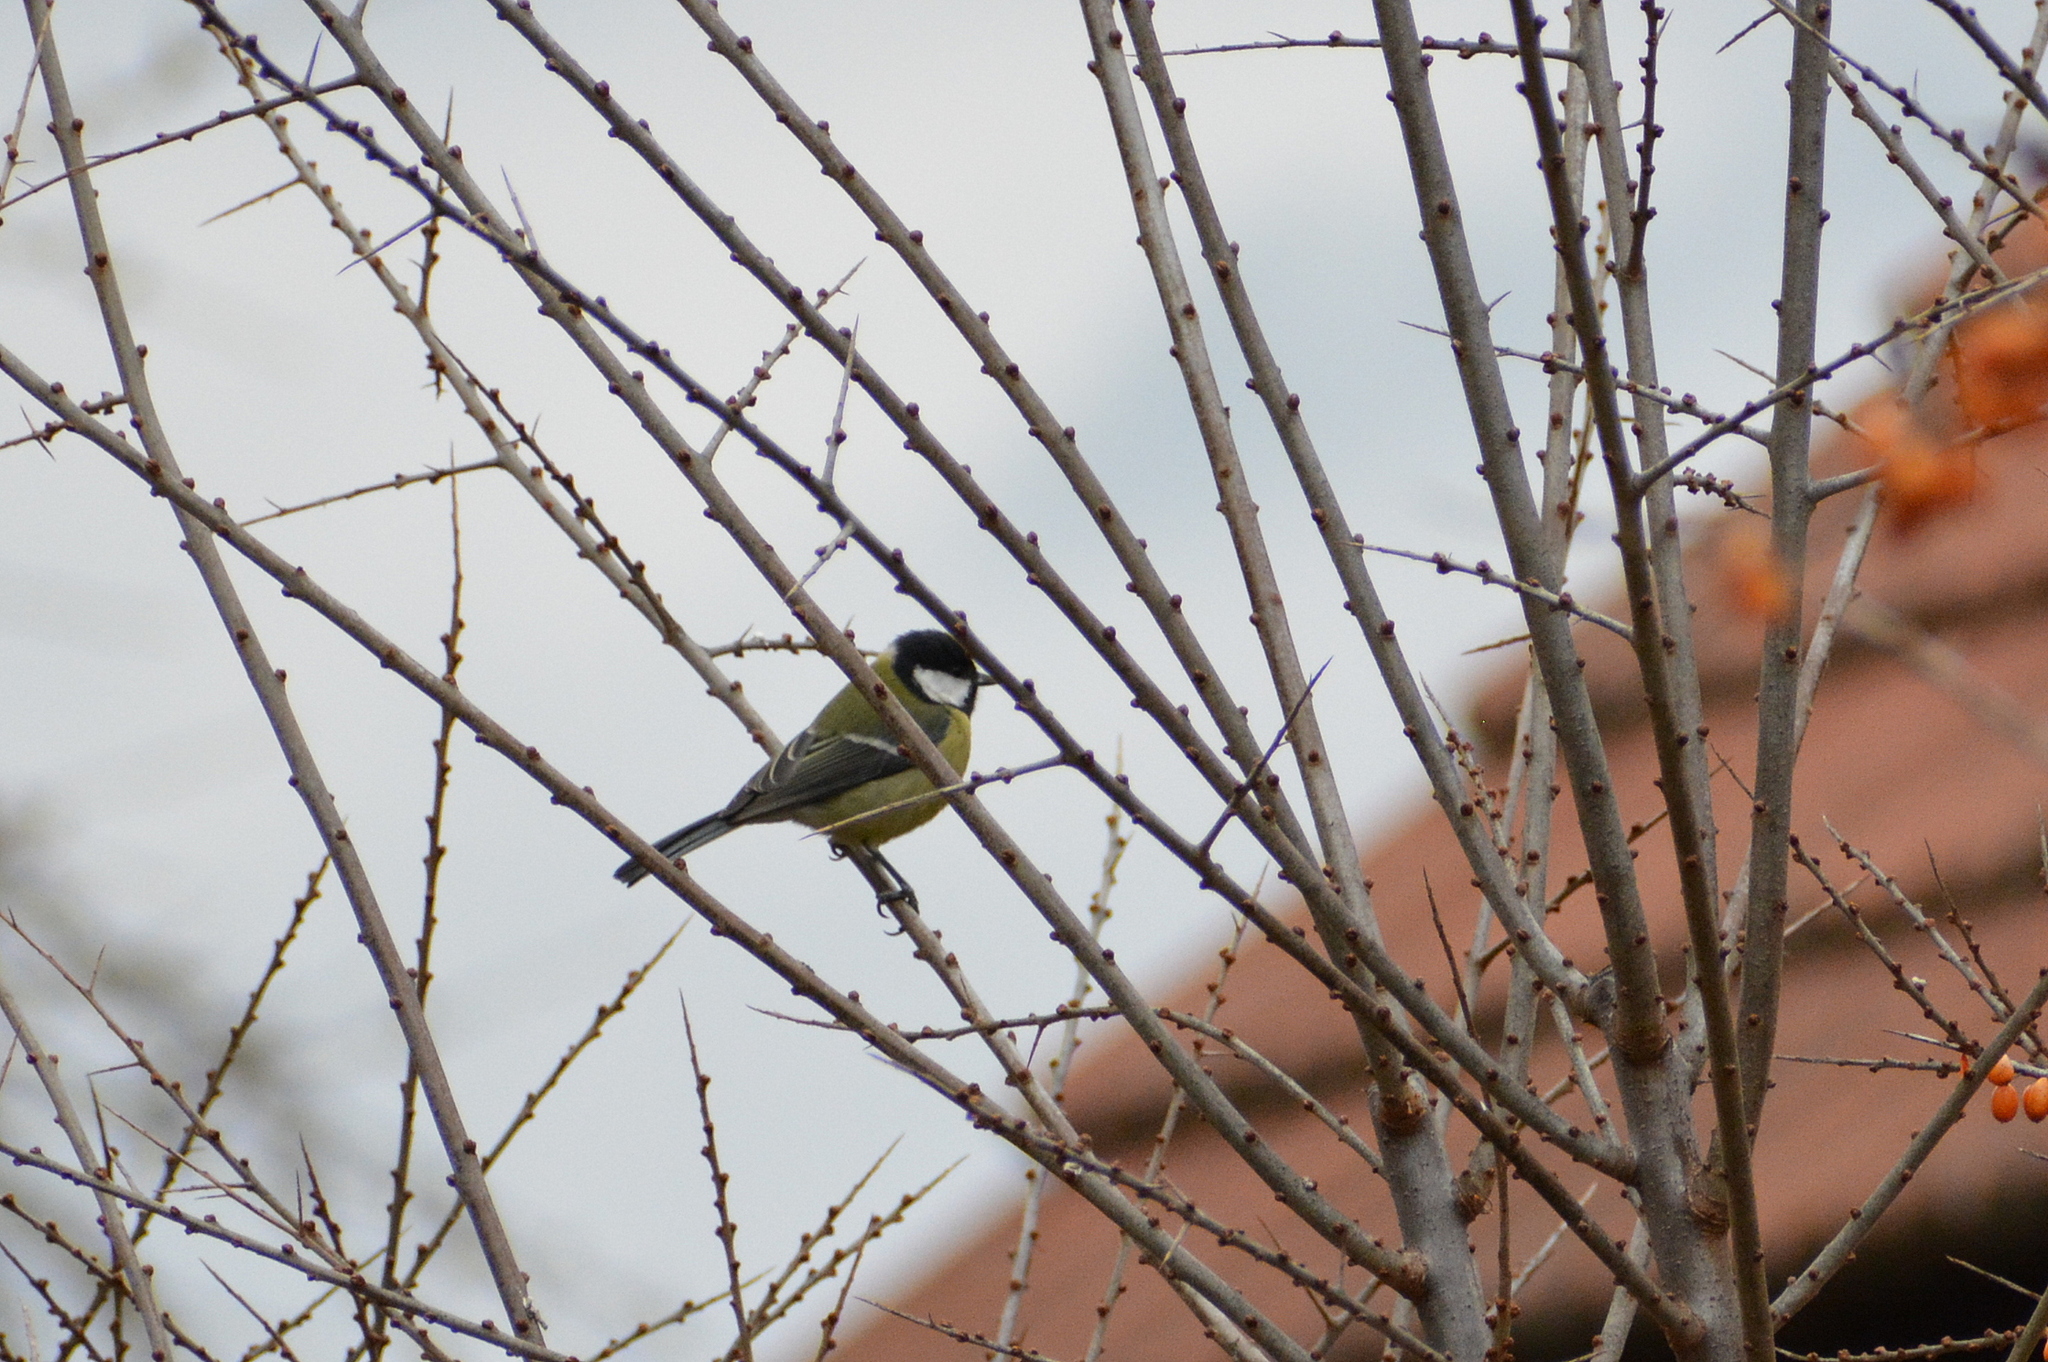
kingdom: Animalia
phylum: Chordata
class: Aves
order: Passeriformes
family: Paridae
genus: Parus
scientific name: Parus major
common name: Great tit
